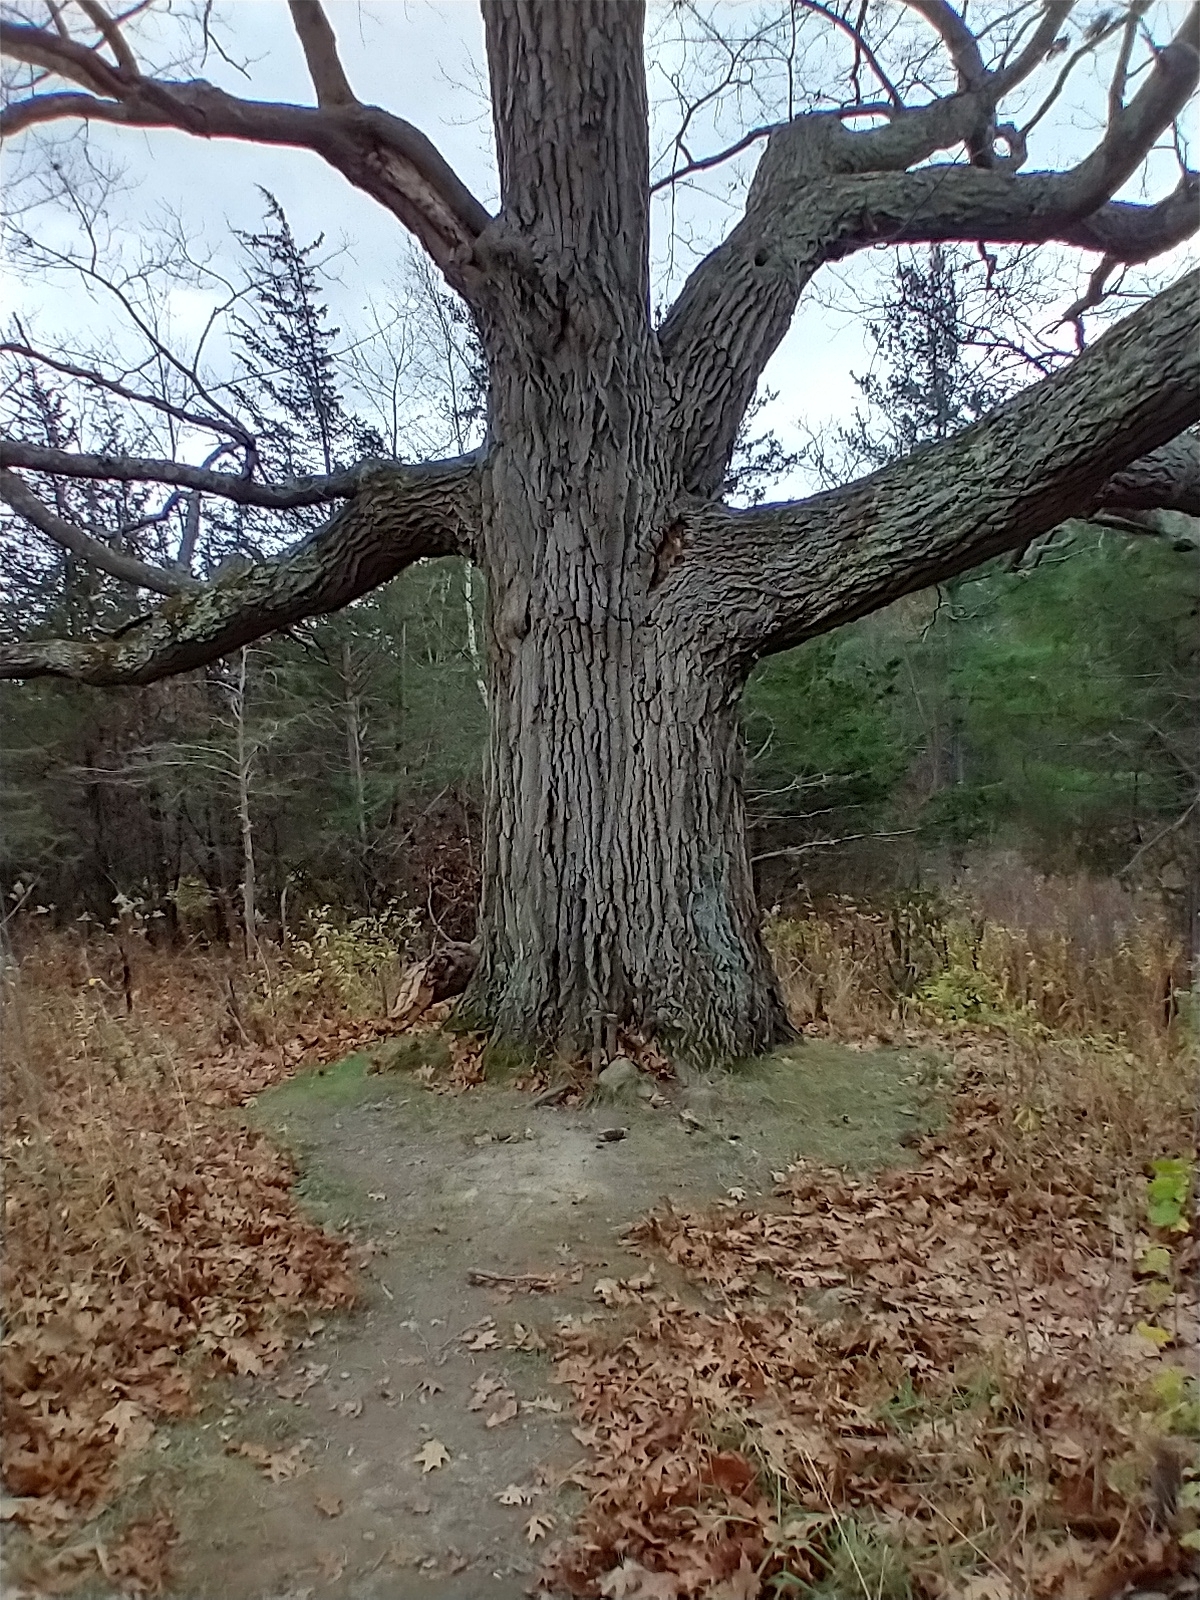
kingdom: Plantae
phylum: Tracheophyta
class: Magnoliopsida
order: Fagales
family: Fagaceae
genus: Quercus
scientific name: Quercus rubra
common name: Red oak
